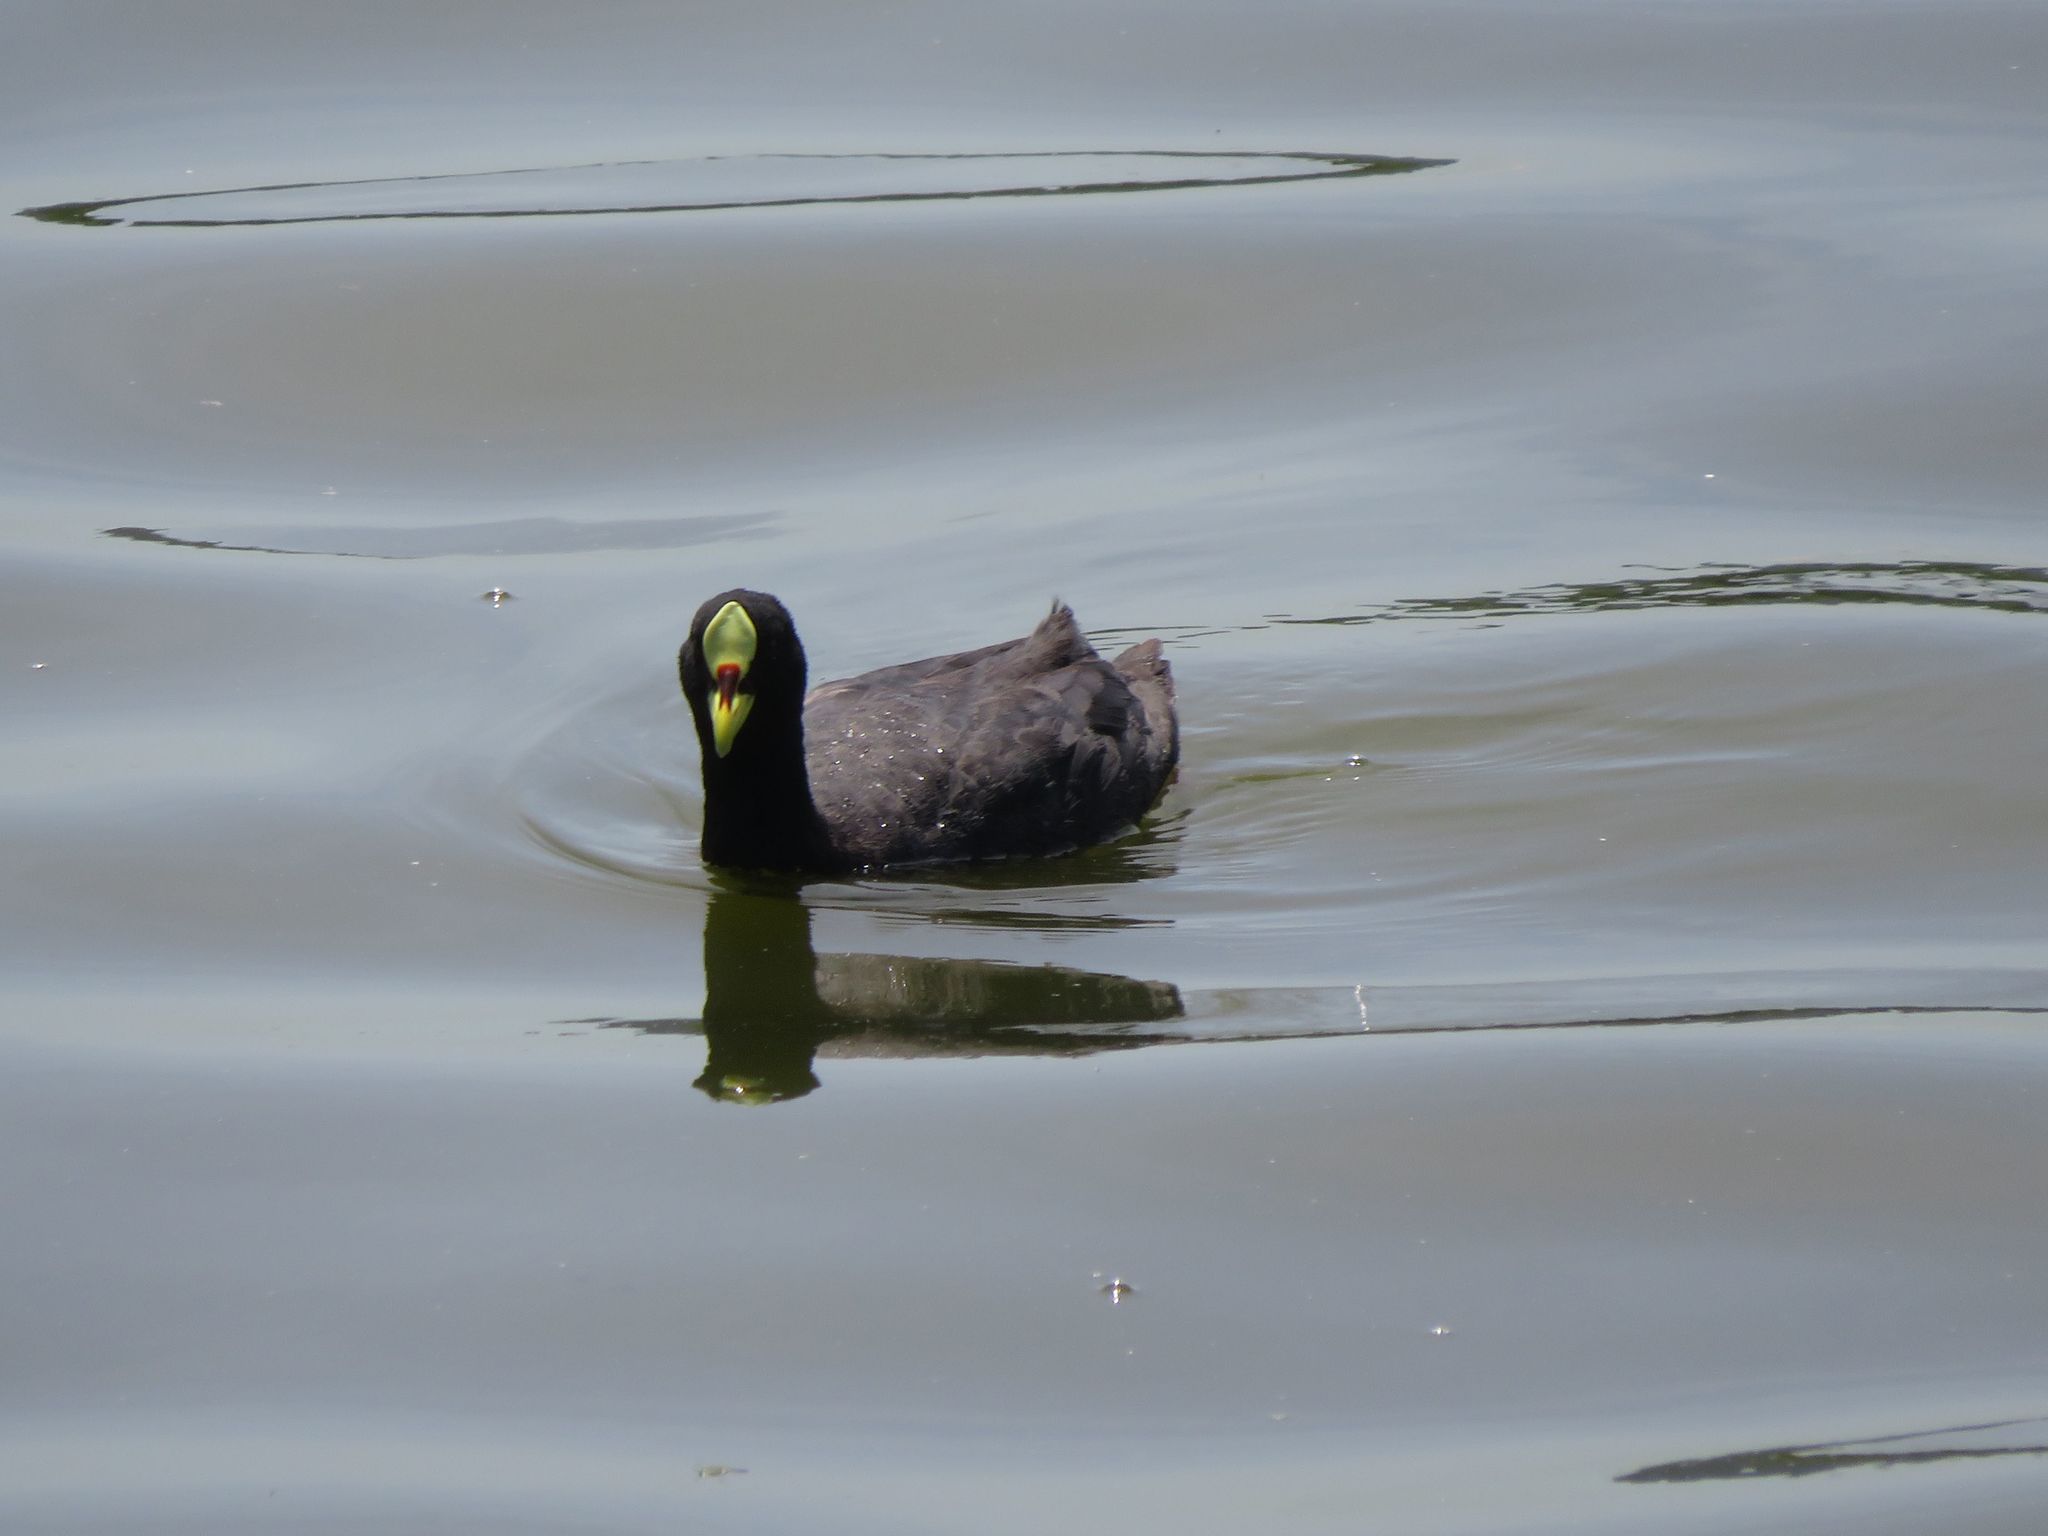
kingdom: Animalia
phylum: Chordata
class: Aves
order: Gruiformes
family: Rallidae
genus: Fulica
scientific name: Fulica armillata
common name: Red-gartered coot
